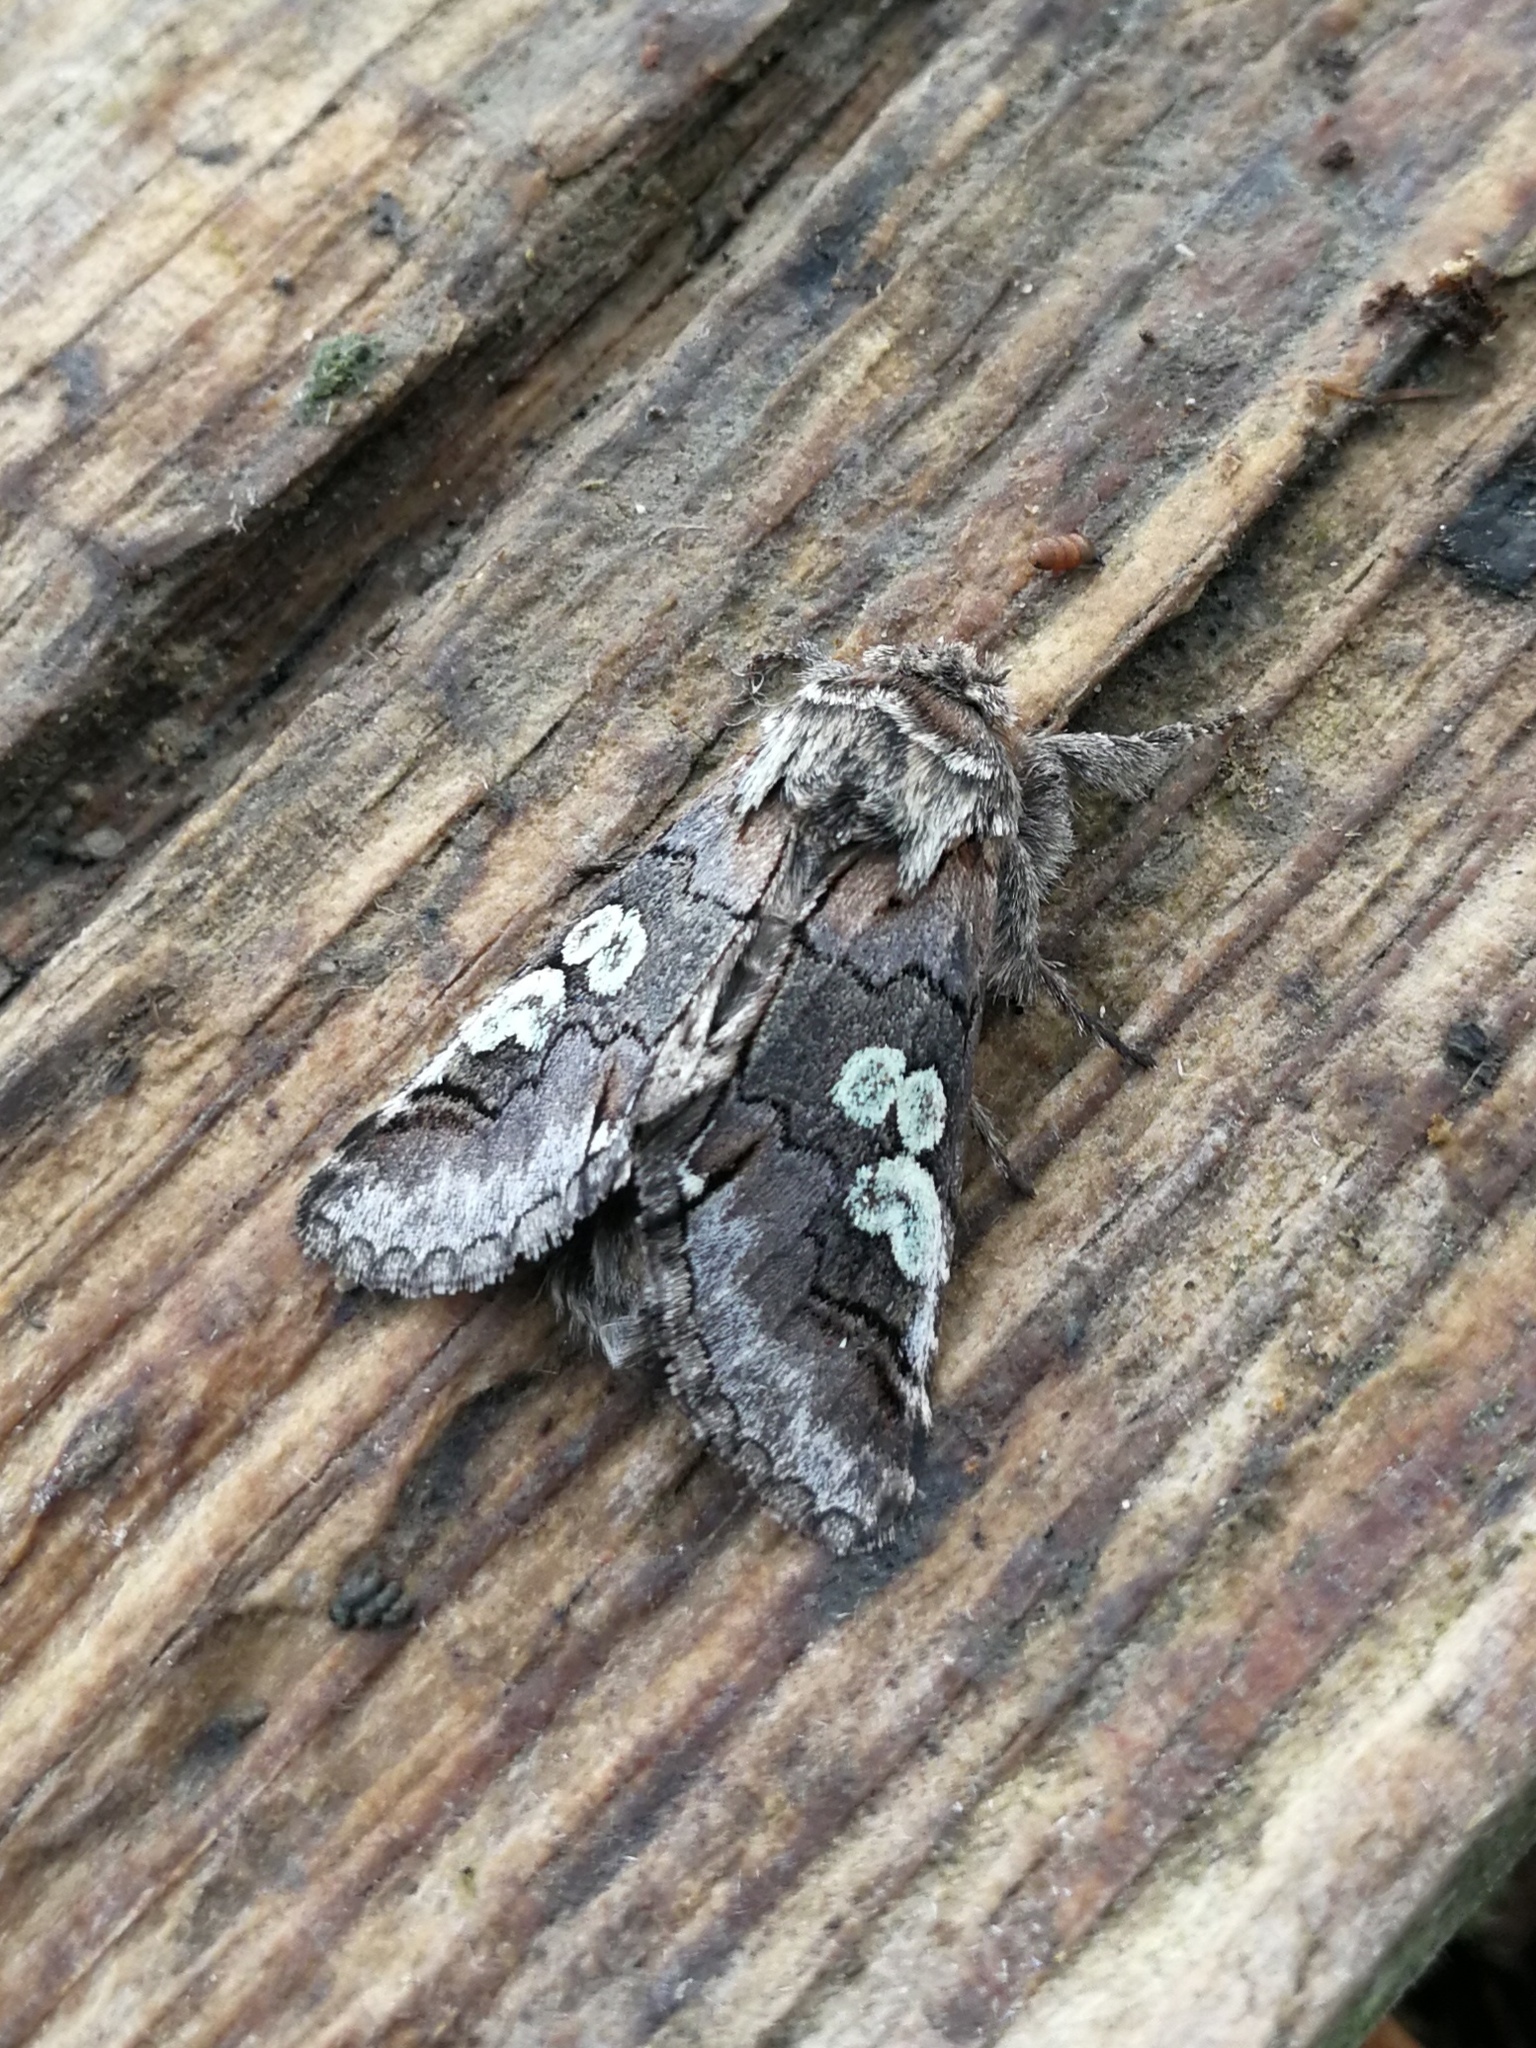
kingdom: Animalia
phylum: Arthropoda
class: Insecta
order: Lepidoptera
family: Noctuidae
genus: Diloba
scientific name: Diloba caeruleocephala
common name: Figure of eight
